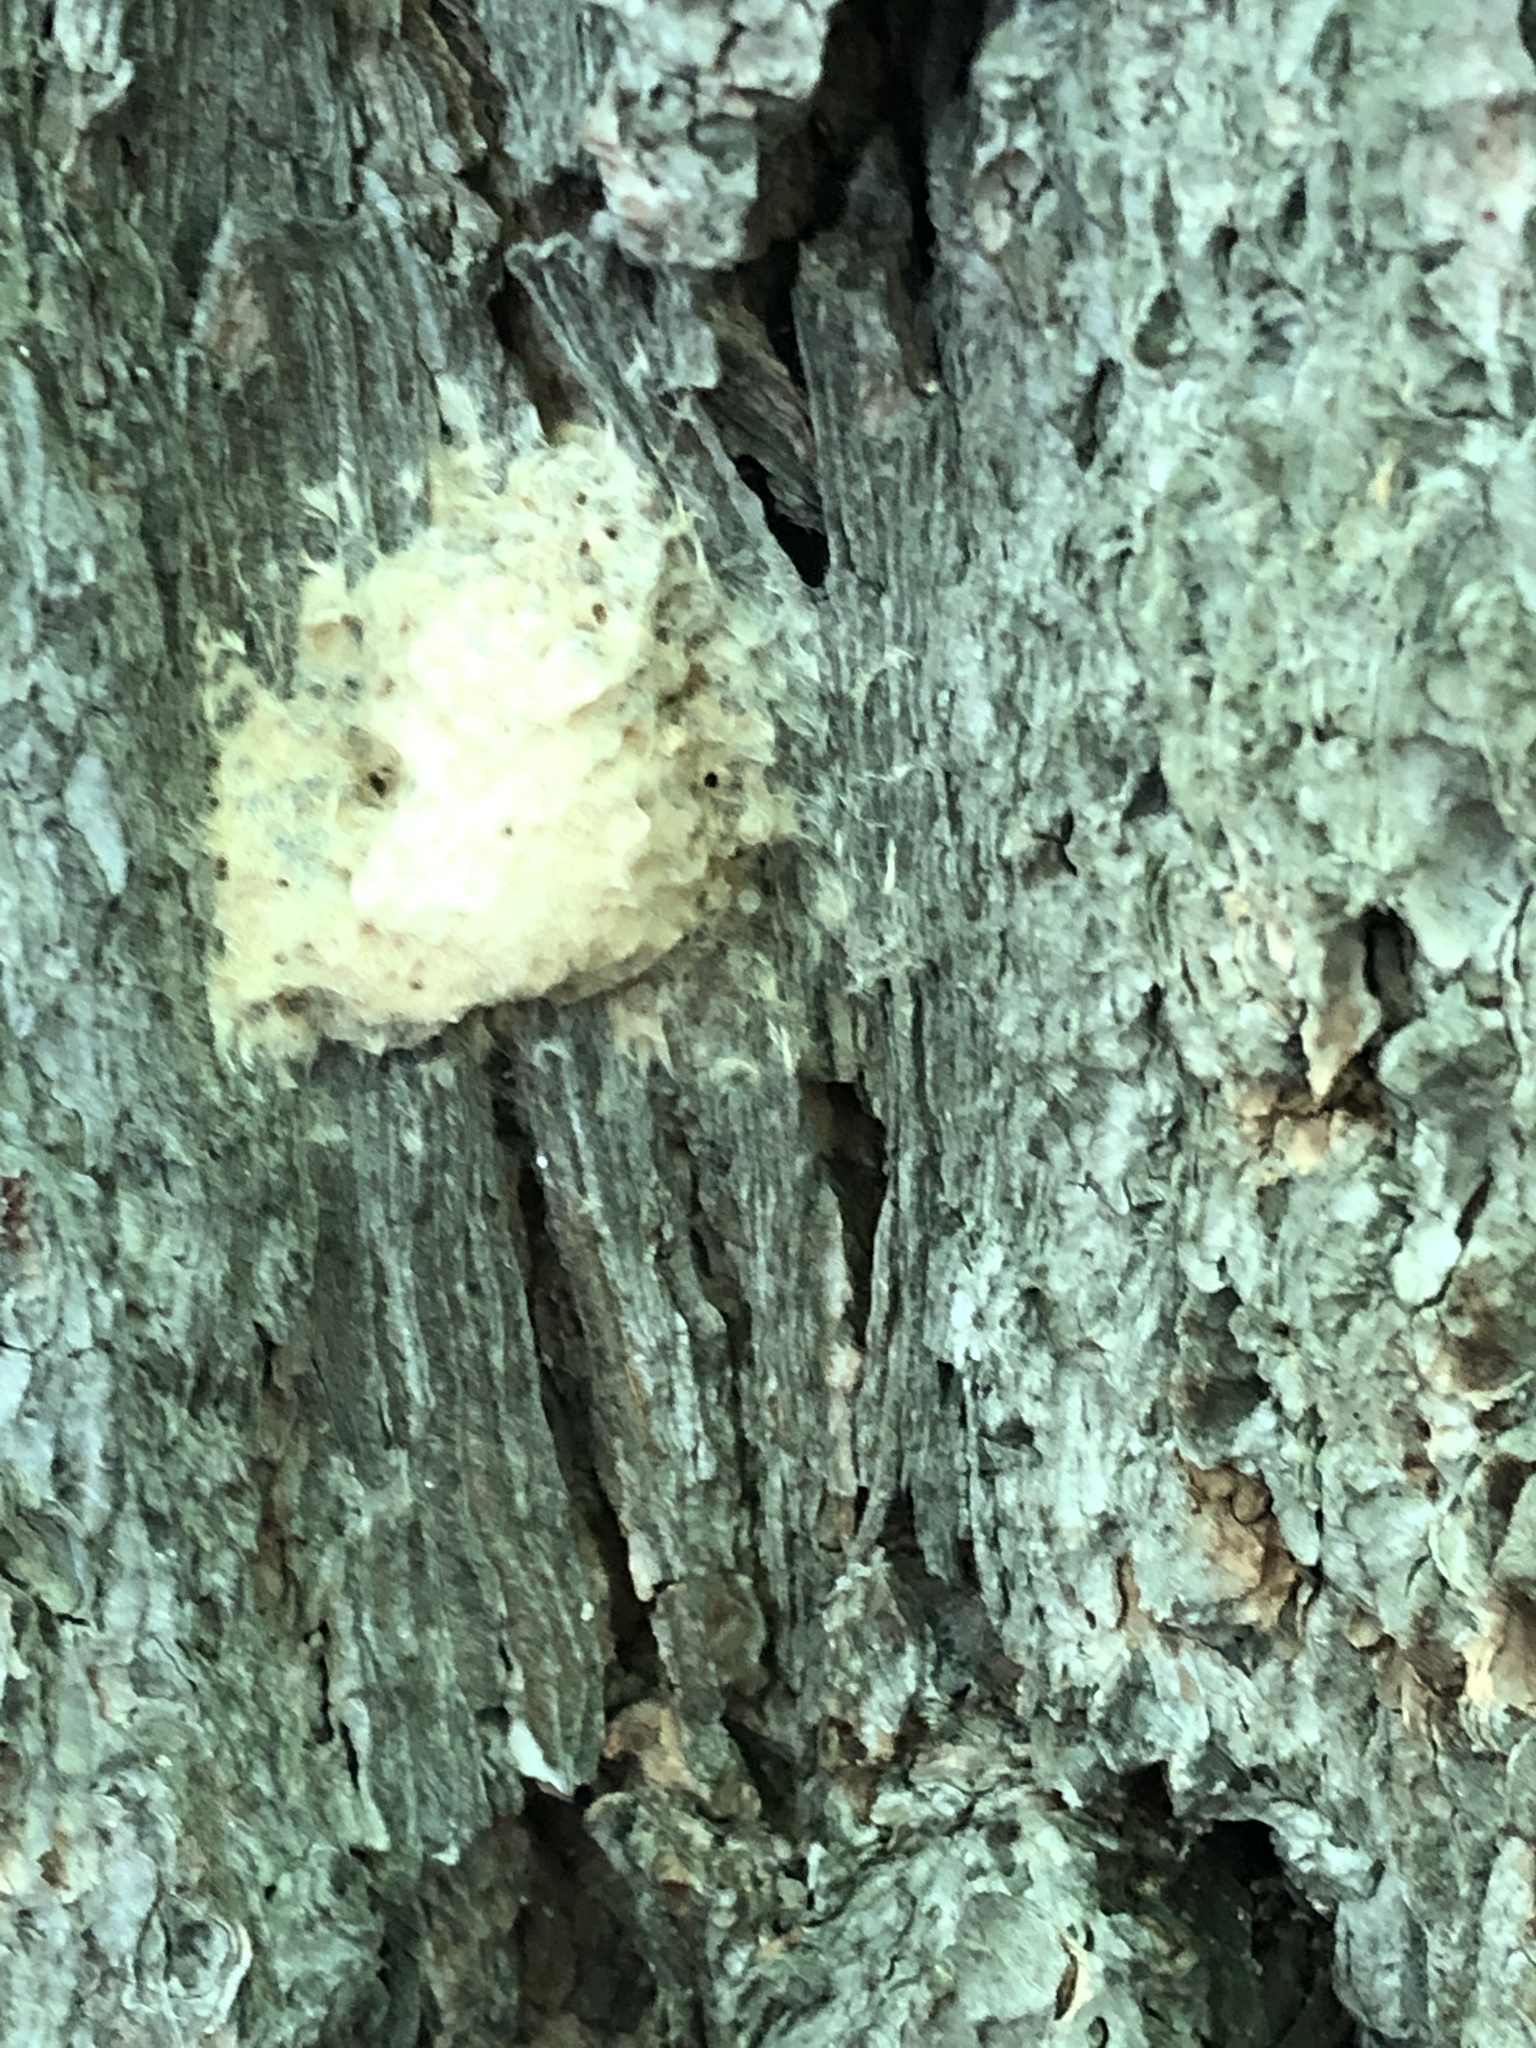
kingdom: Animalia
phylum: Arthropoda
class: Insecta
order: Lepidoptera
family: Erebidae
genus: Lymantria
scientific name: Lymantria dispar
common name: Gypsy moth
